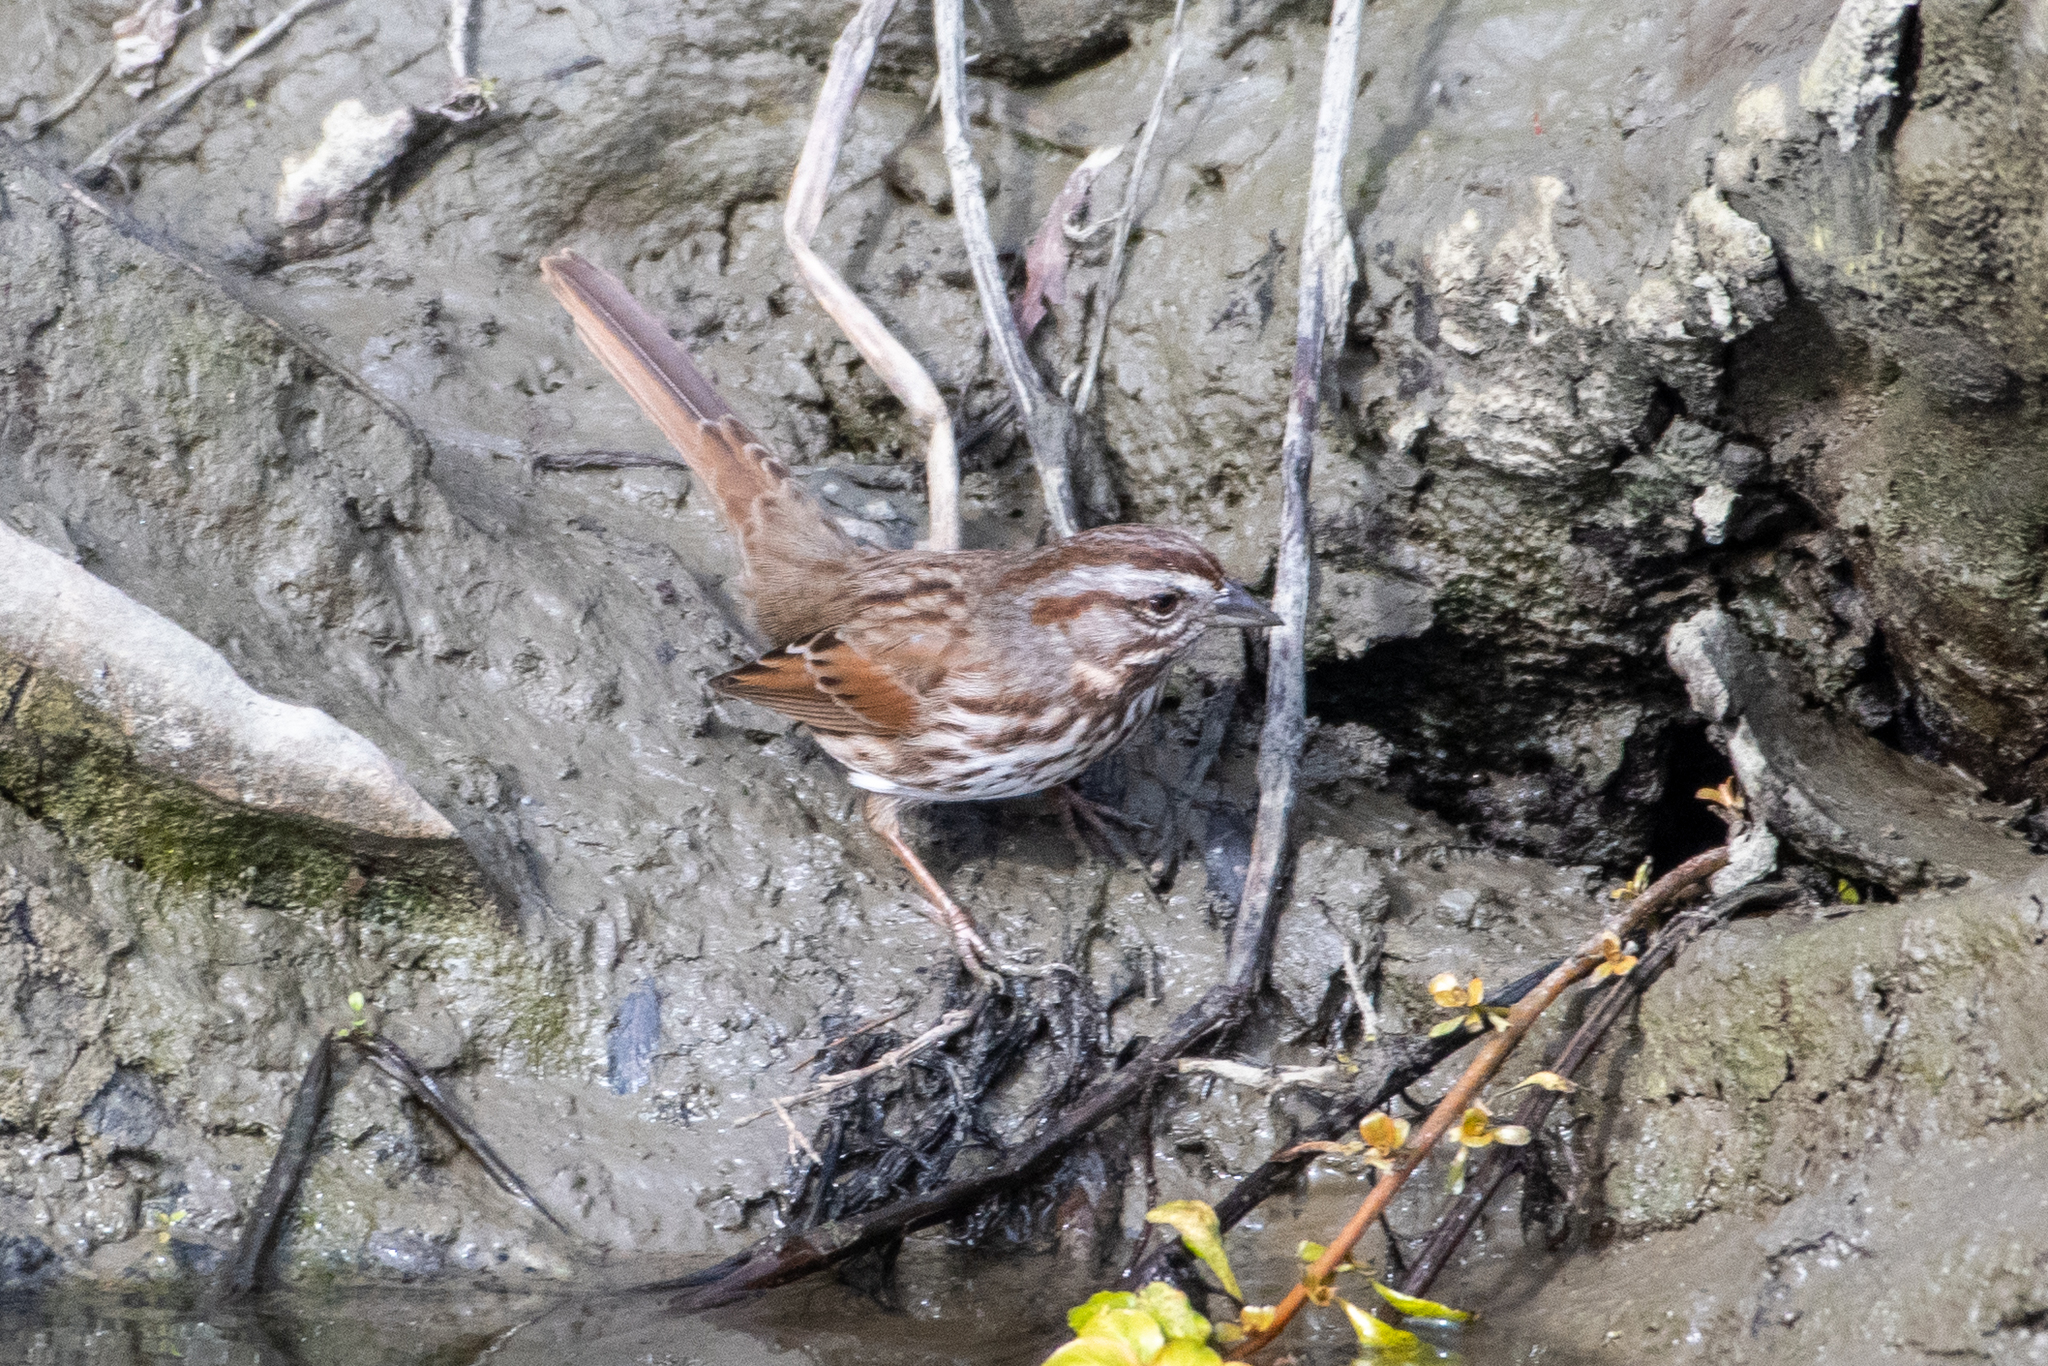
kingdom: Animalia
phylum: Chordata
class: Aves
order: Passeriformes
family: Passerellidae
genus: Melospiza
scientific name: Melospiza melodia
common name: Song sparrow
